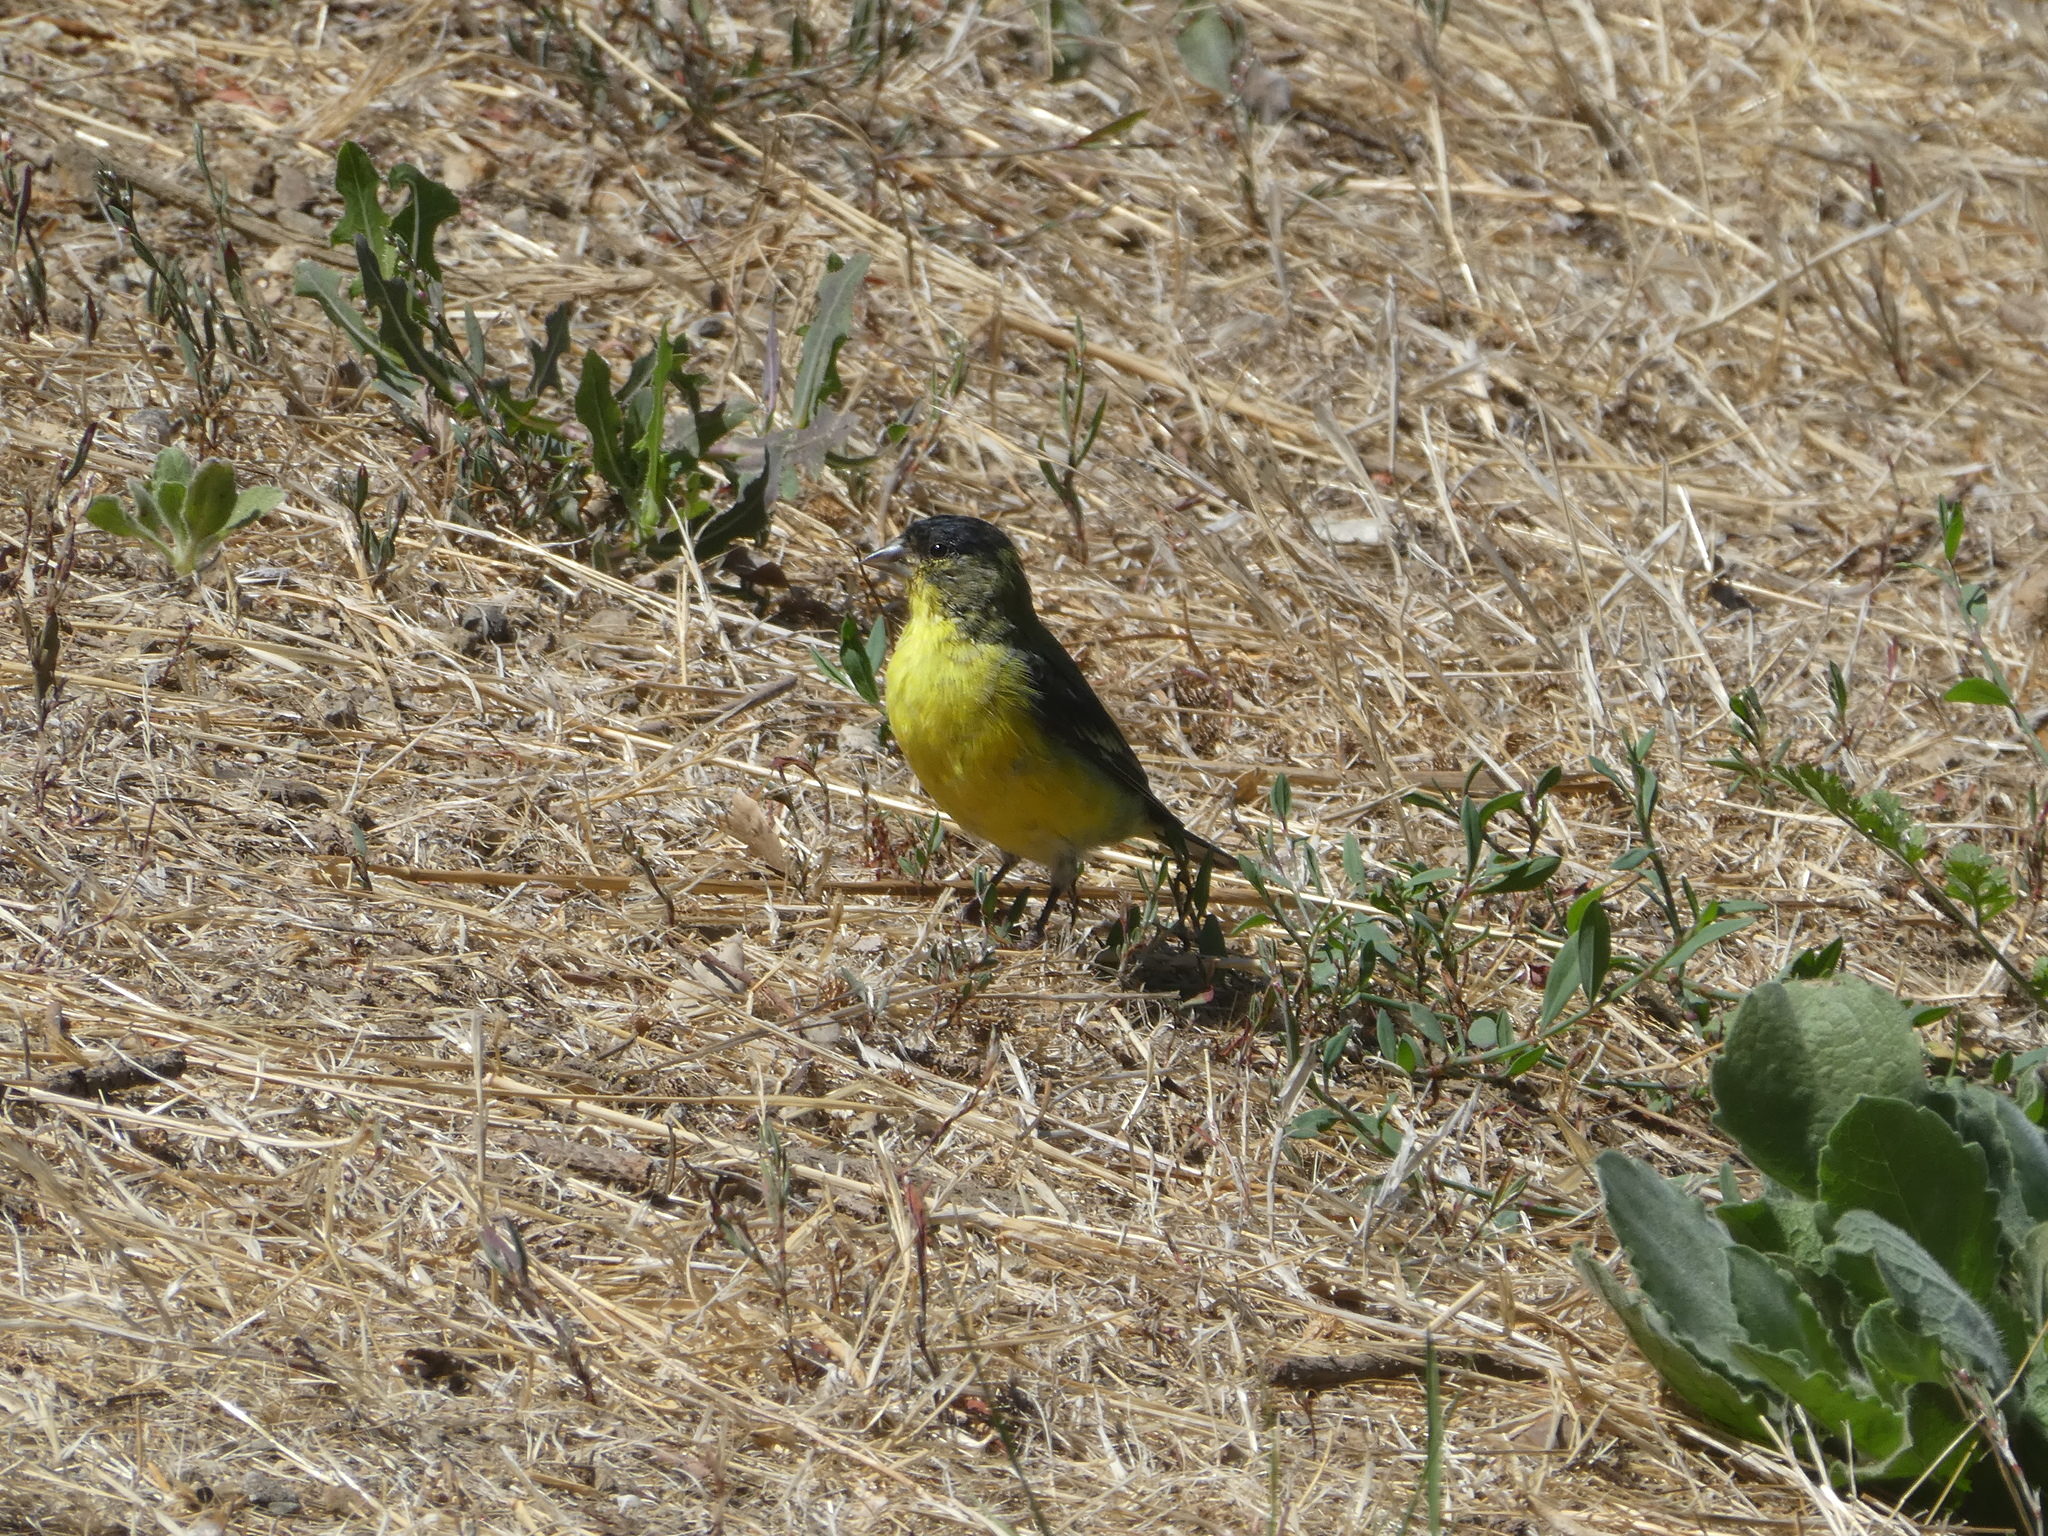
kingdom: Animalia
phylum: Chordata
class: Aves
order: Passeriformes
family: Fringillidae
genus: Spinus
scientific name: Spinus psaltria
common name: Lesser goldfinch
